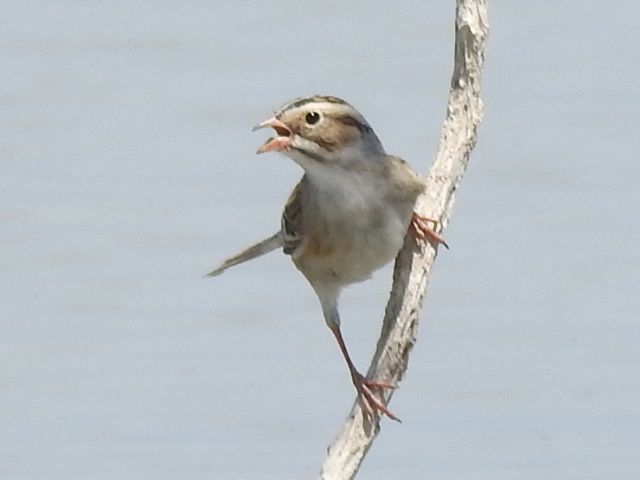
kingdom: Animalia
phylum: Chordata
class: Aves
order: Passeriformes
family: Passerellidae
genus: Spizella
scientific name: Spizella pallida
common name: Clay-colored sparrow
